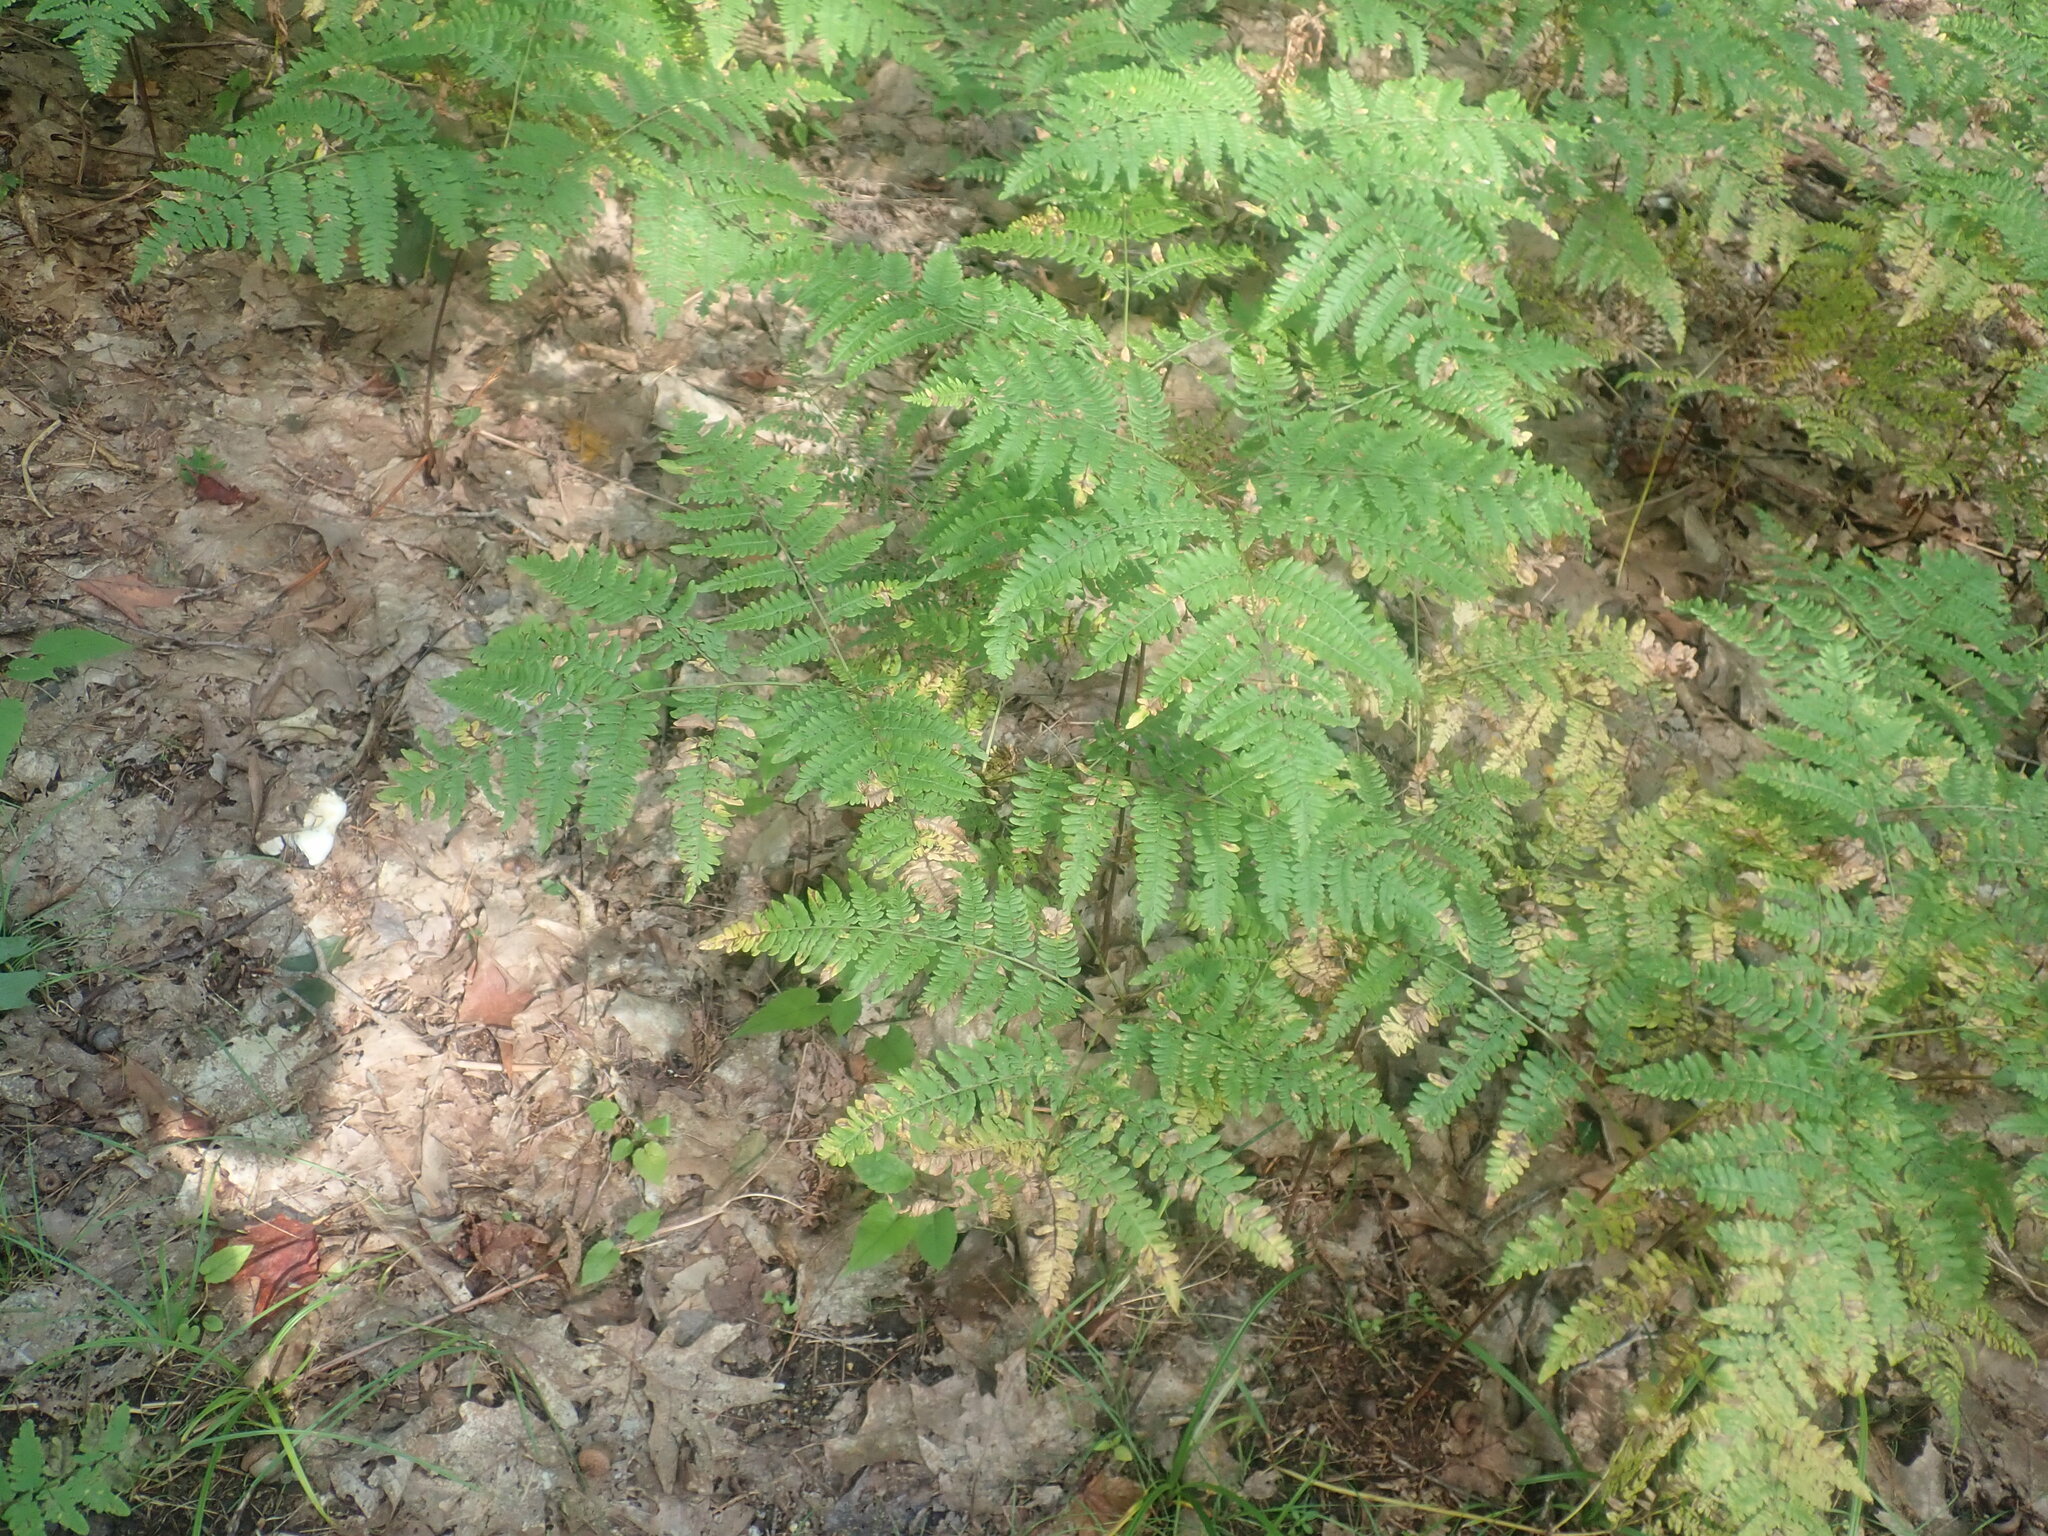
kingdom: Plantae
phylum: Tracheophyta
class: Polypodiopsida
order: Polypodiales
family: Dennstaedtiaceae
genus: Pteridium
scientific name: Pteridium aquilinum
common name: Bracken
